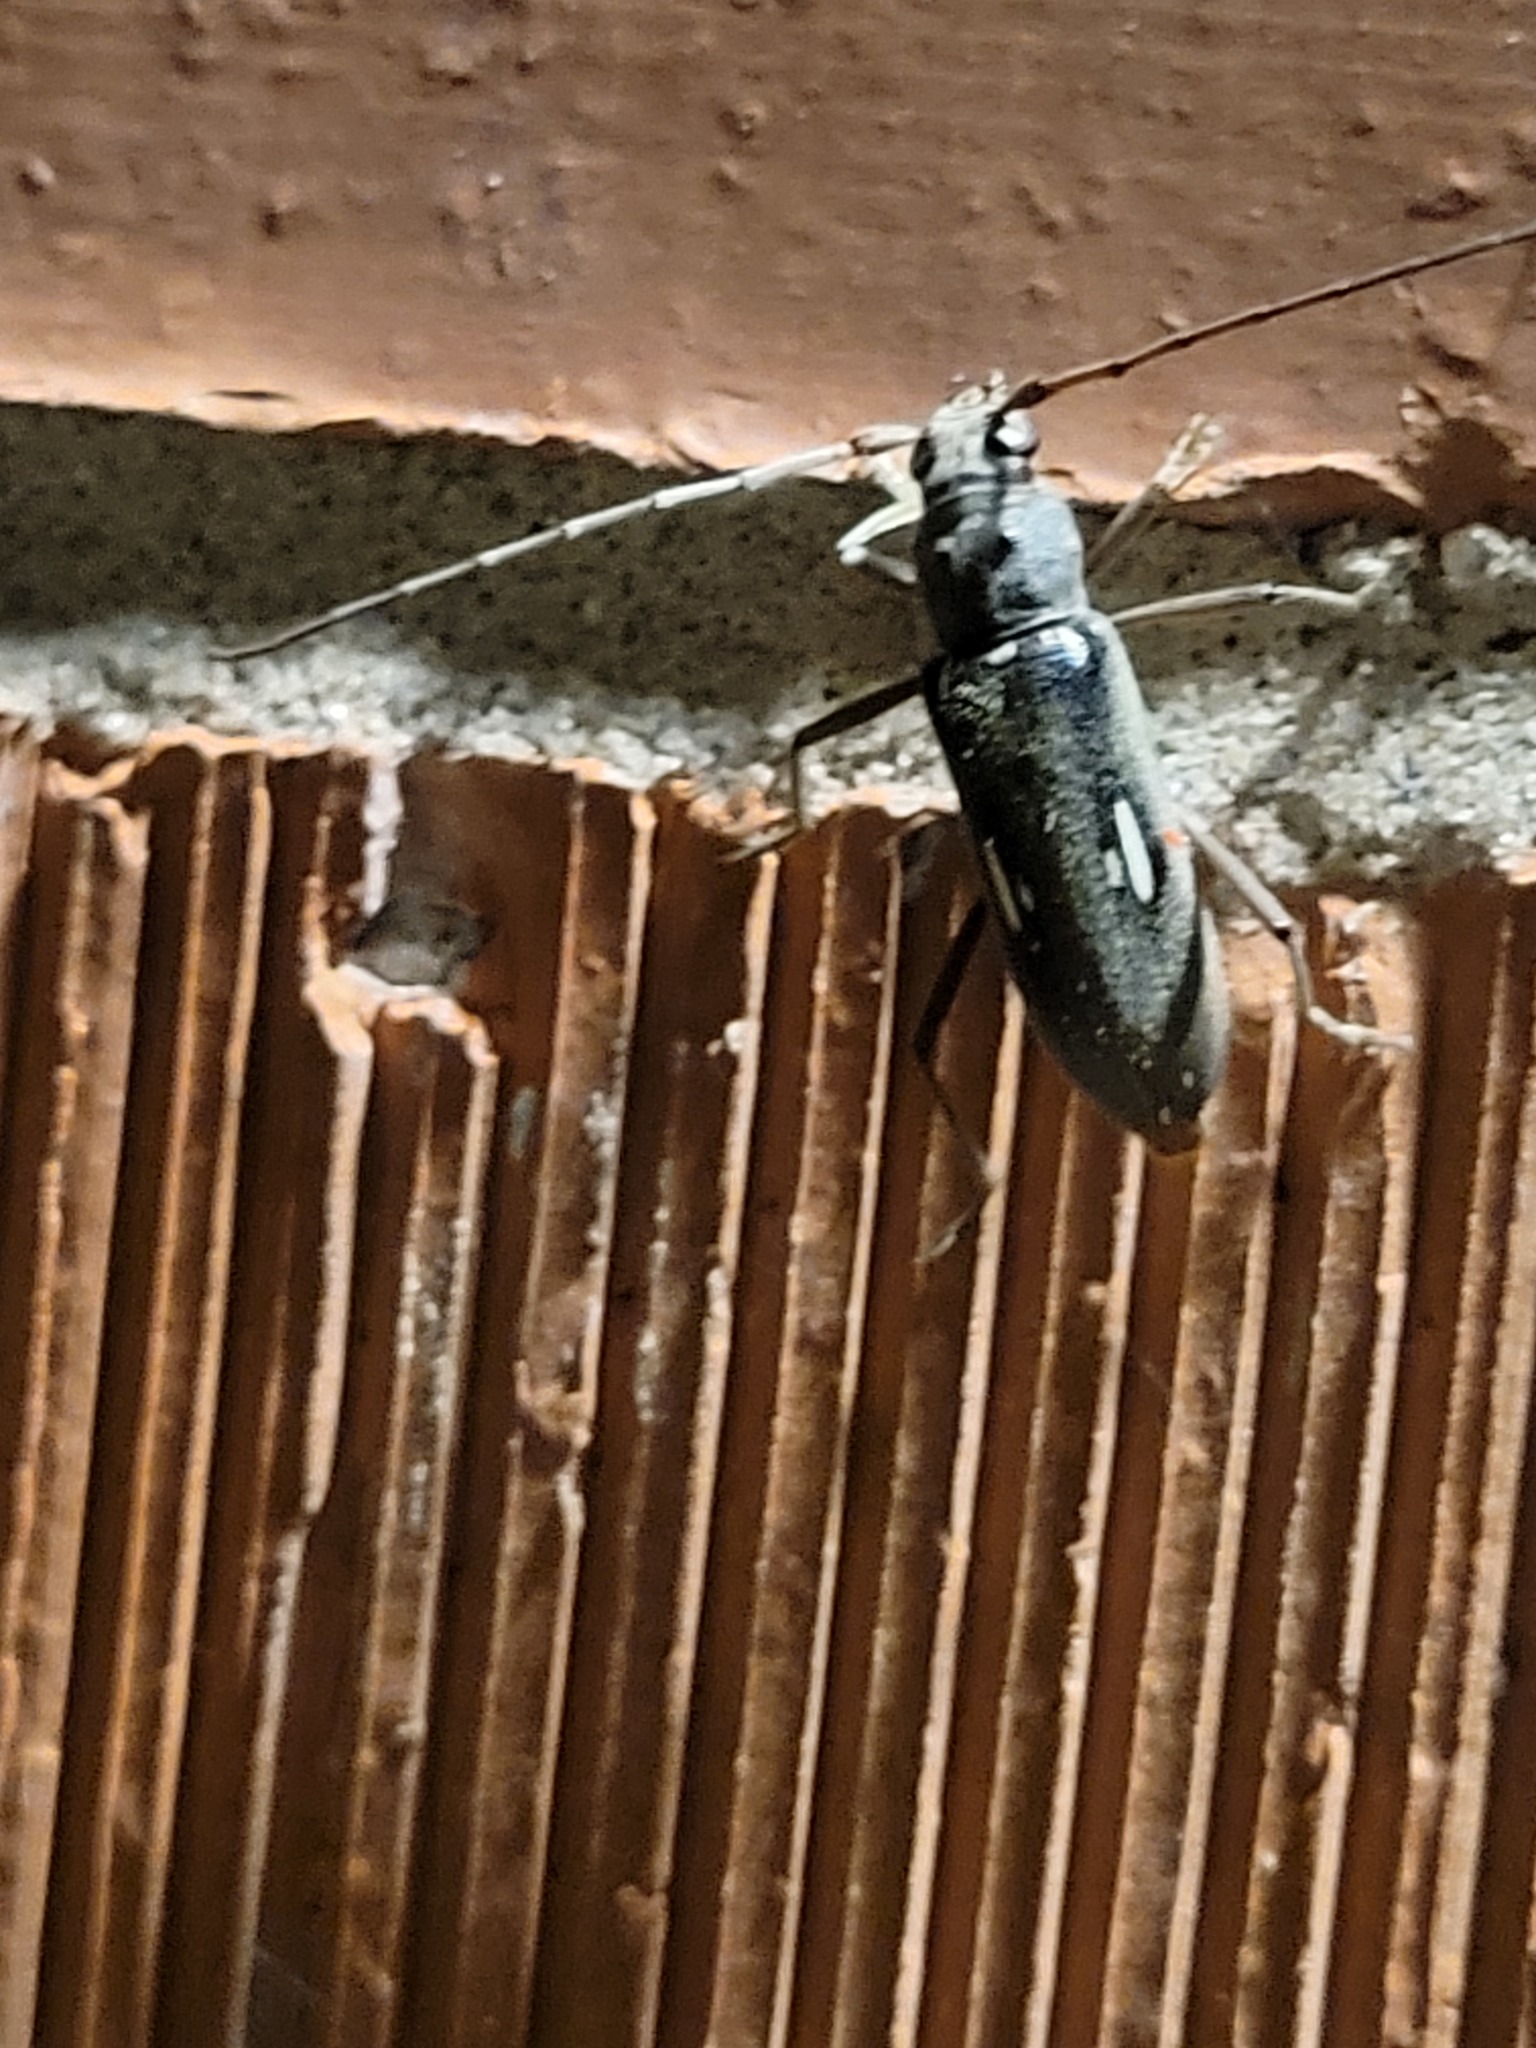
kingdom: Animalia
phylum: Arthropoda
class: Insecta
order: Coleoptera
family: Cerambycidae
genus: Eburia
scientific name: Eburia ovicollis
